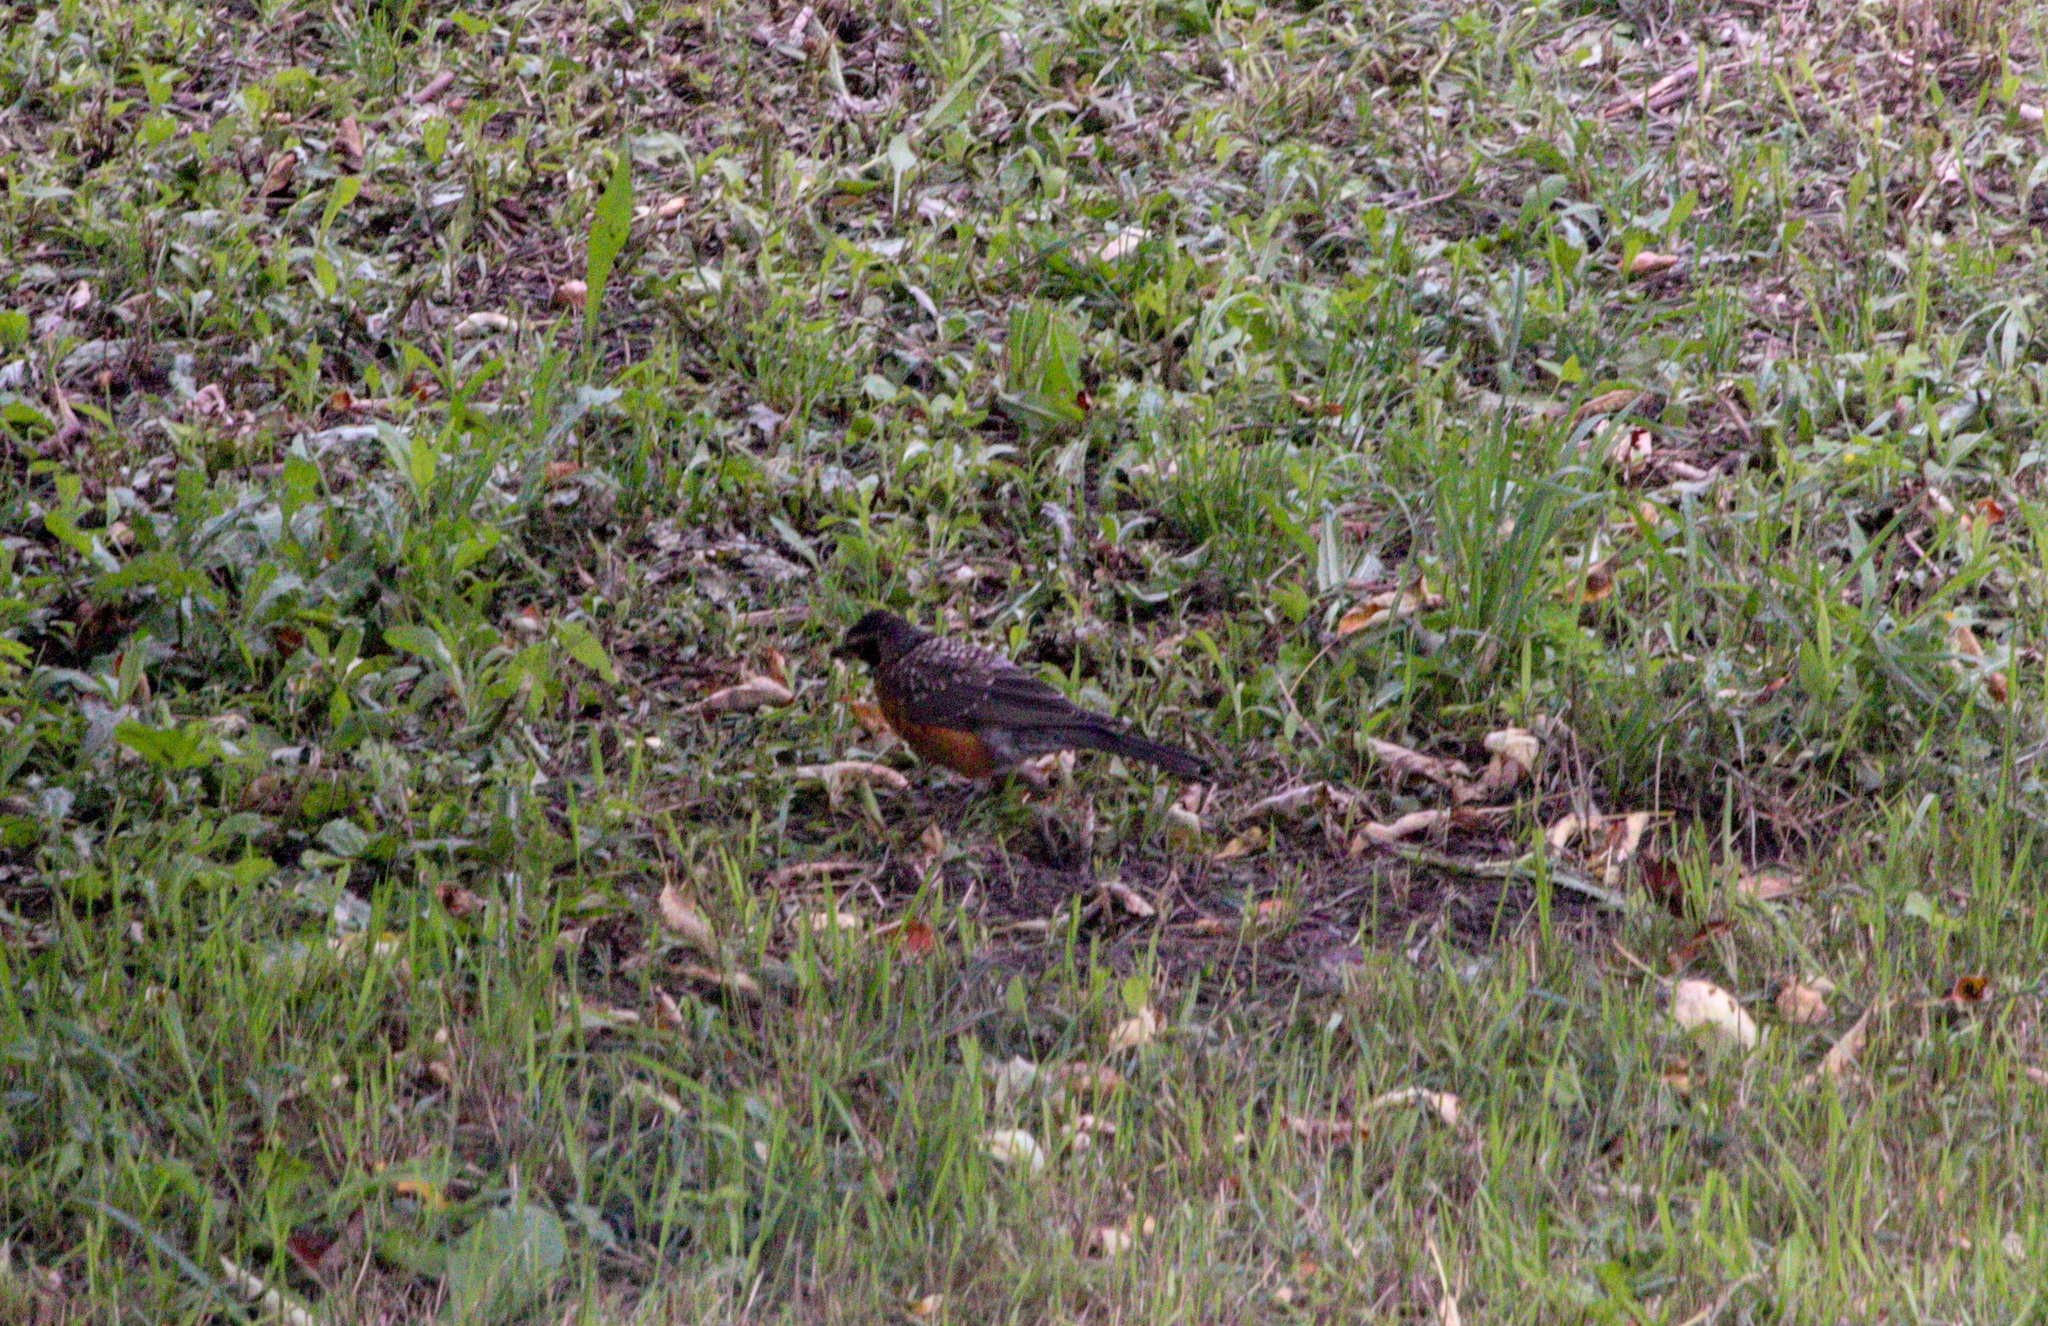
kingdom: Animalia
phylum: Chordata
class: Aves
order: Passeriformes
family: Turdidae
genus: Turdus
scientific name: Turdus migratorius
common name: American robin
